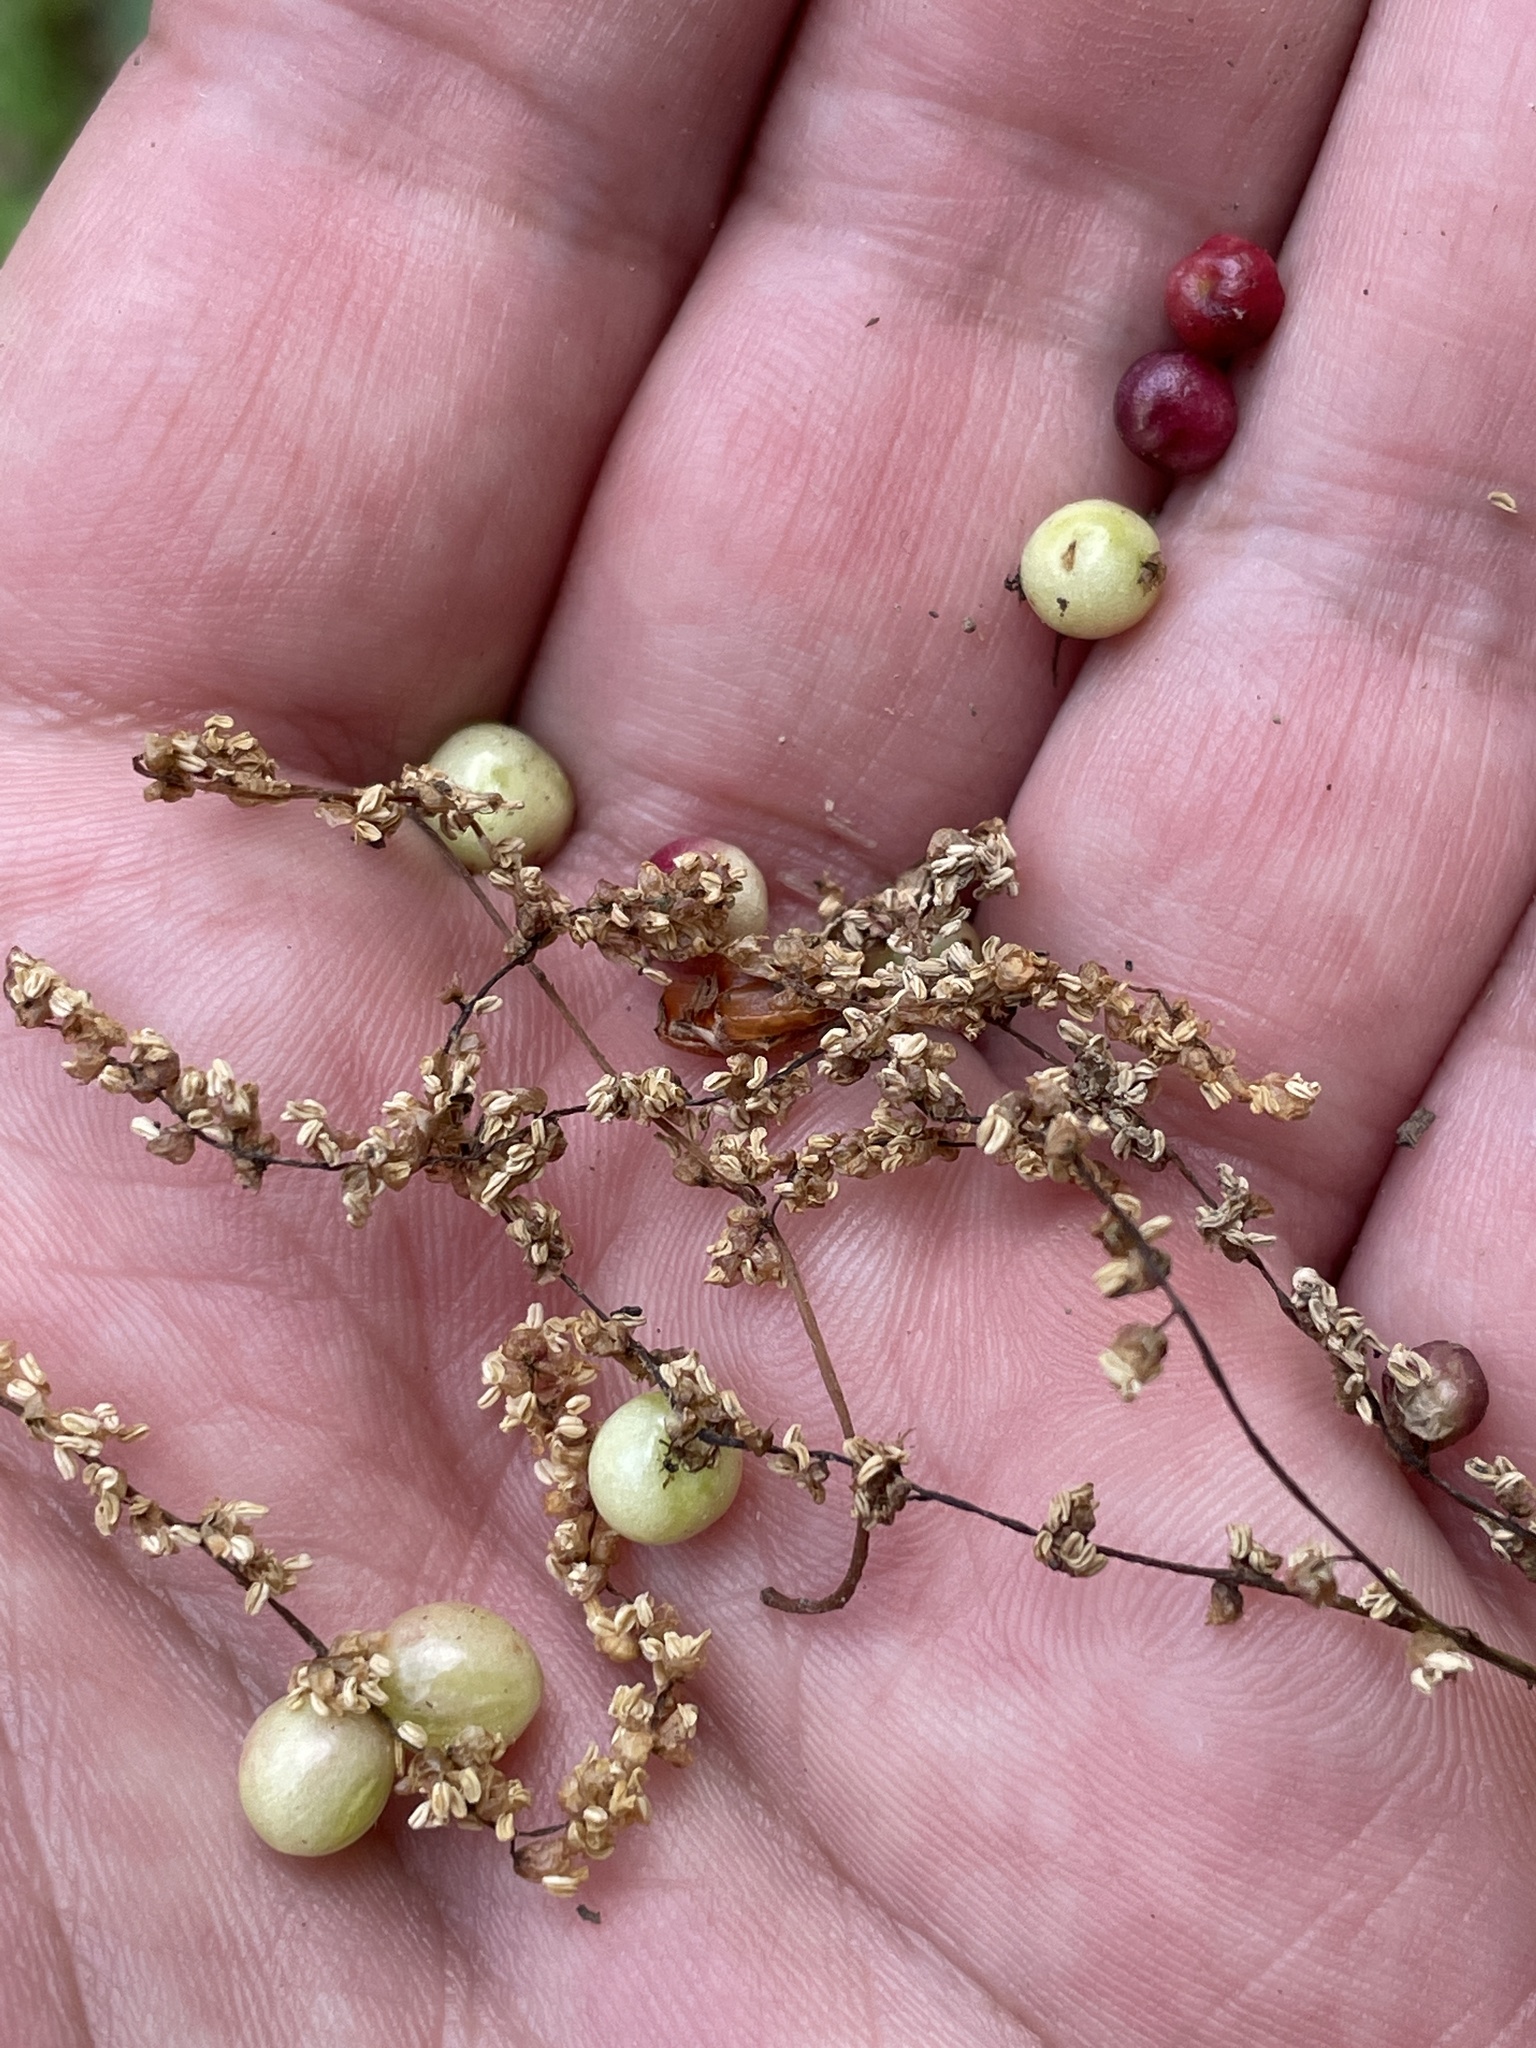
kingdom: Animalia
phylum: Arthropoda
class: Insecta
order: Hymenoptera
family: Cynipidae
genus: Callirhytis
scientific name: Callirhytis
